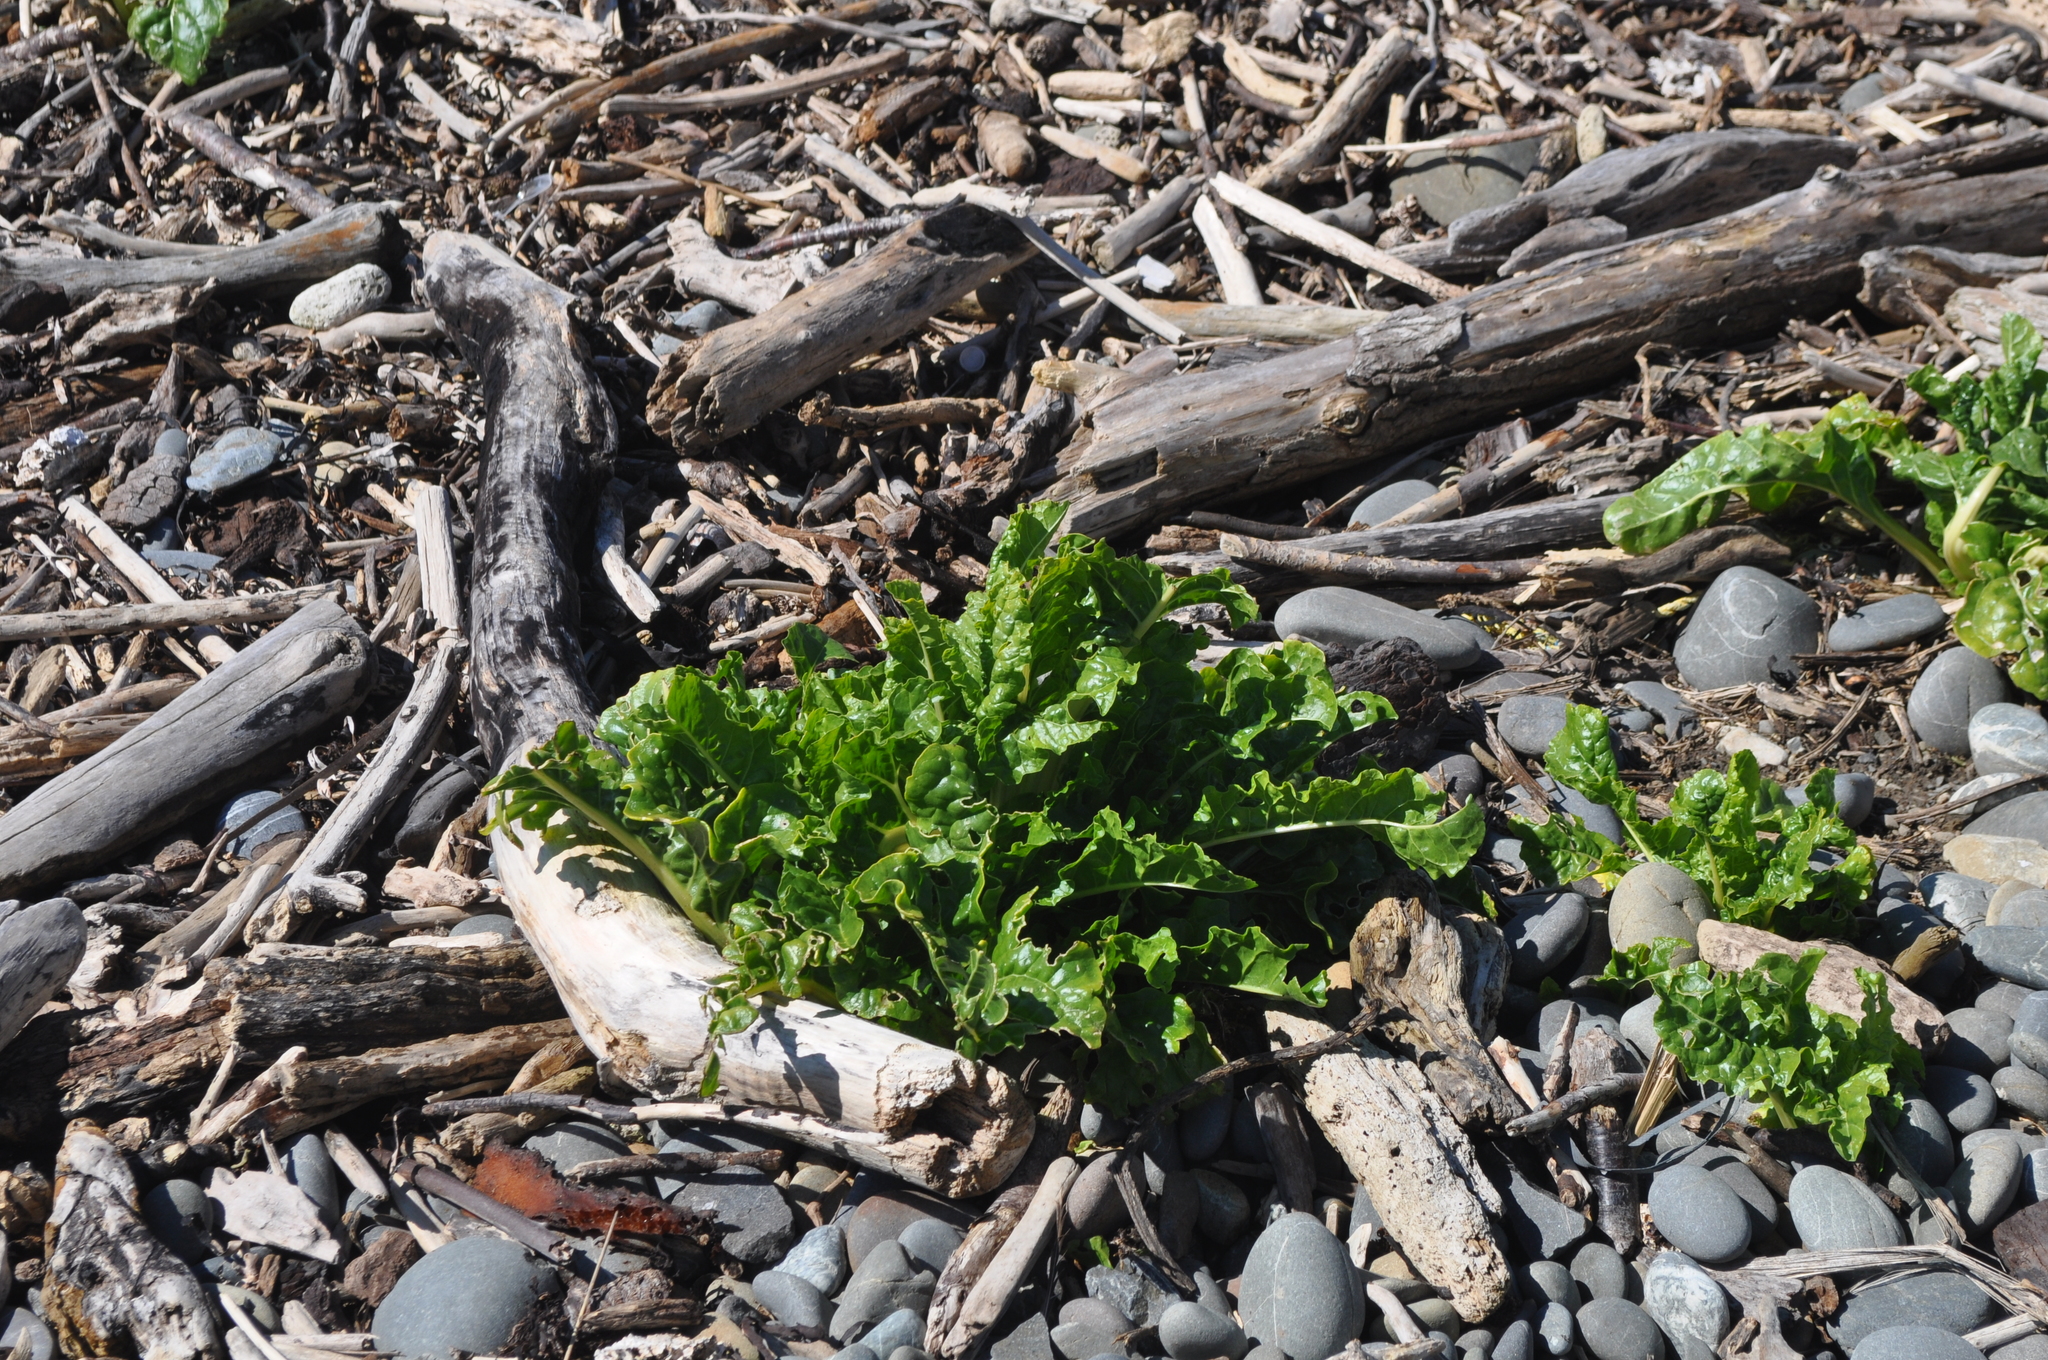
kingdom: Plantae
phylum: Tracheophyta
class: Magnoliopsida
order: Caryophyllales
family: Amaranthaceae
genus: Beta
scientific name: Beta vulgaris
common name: Beet
